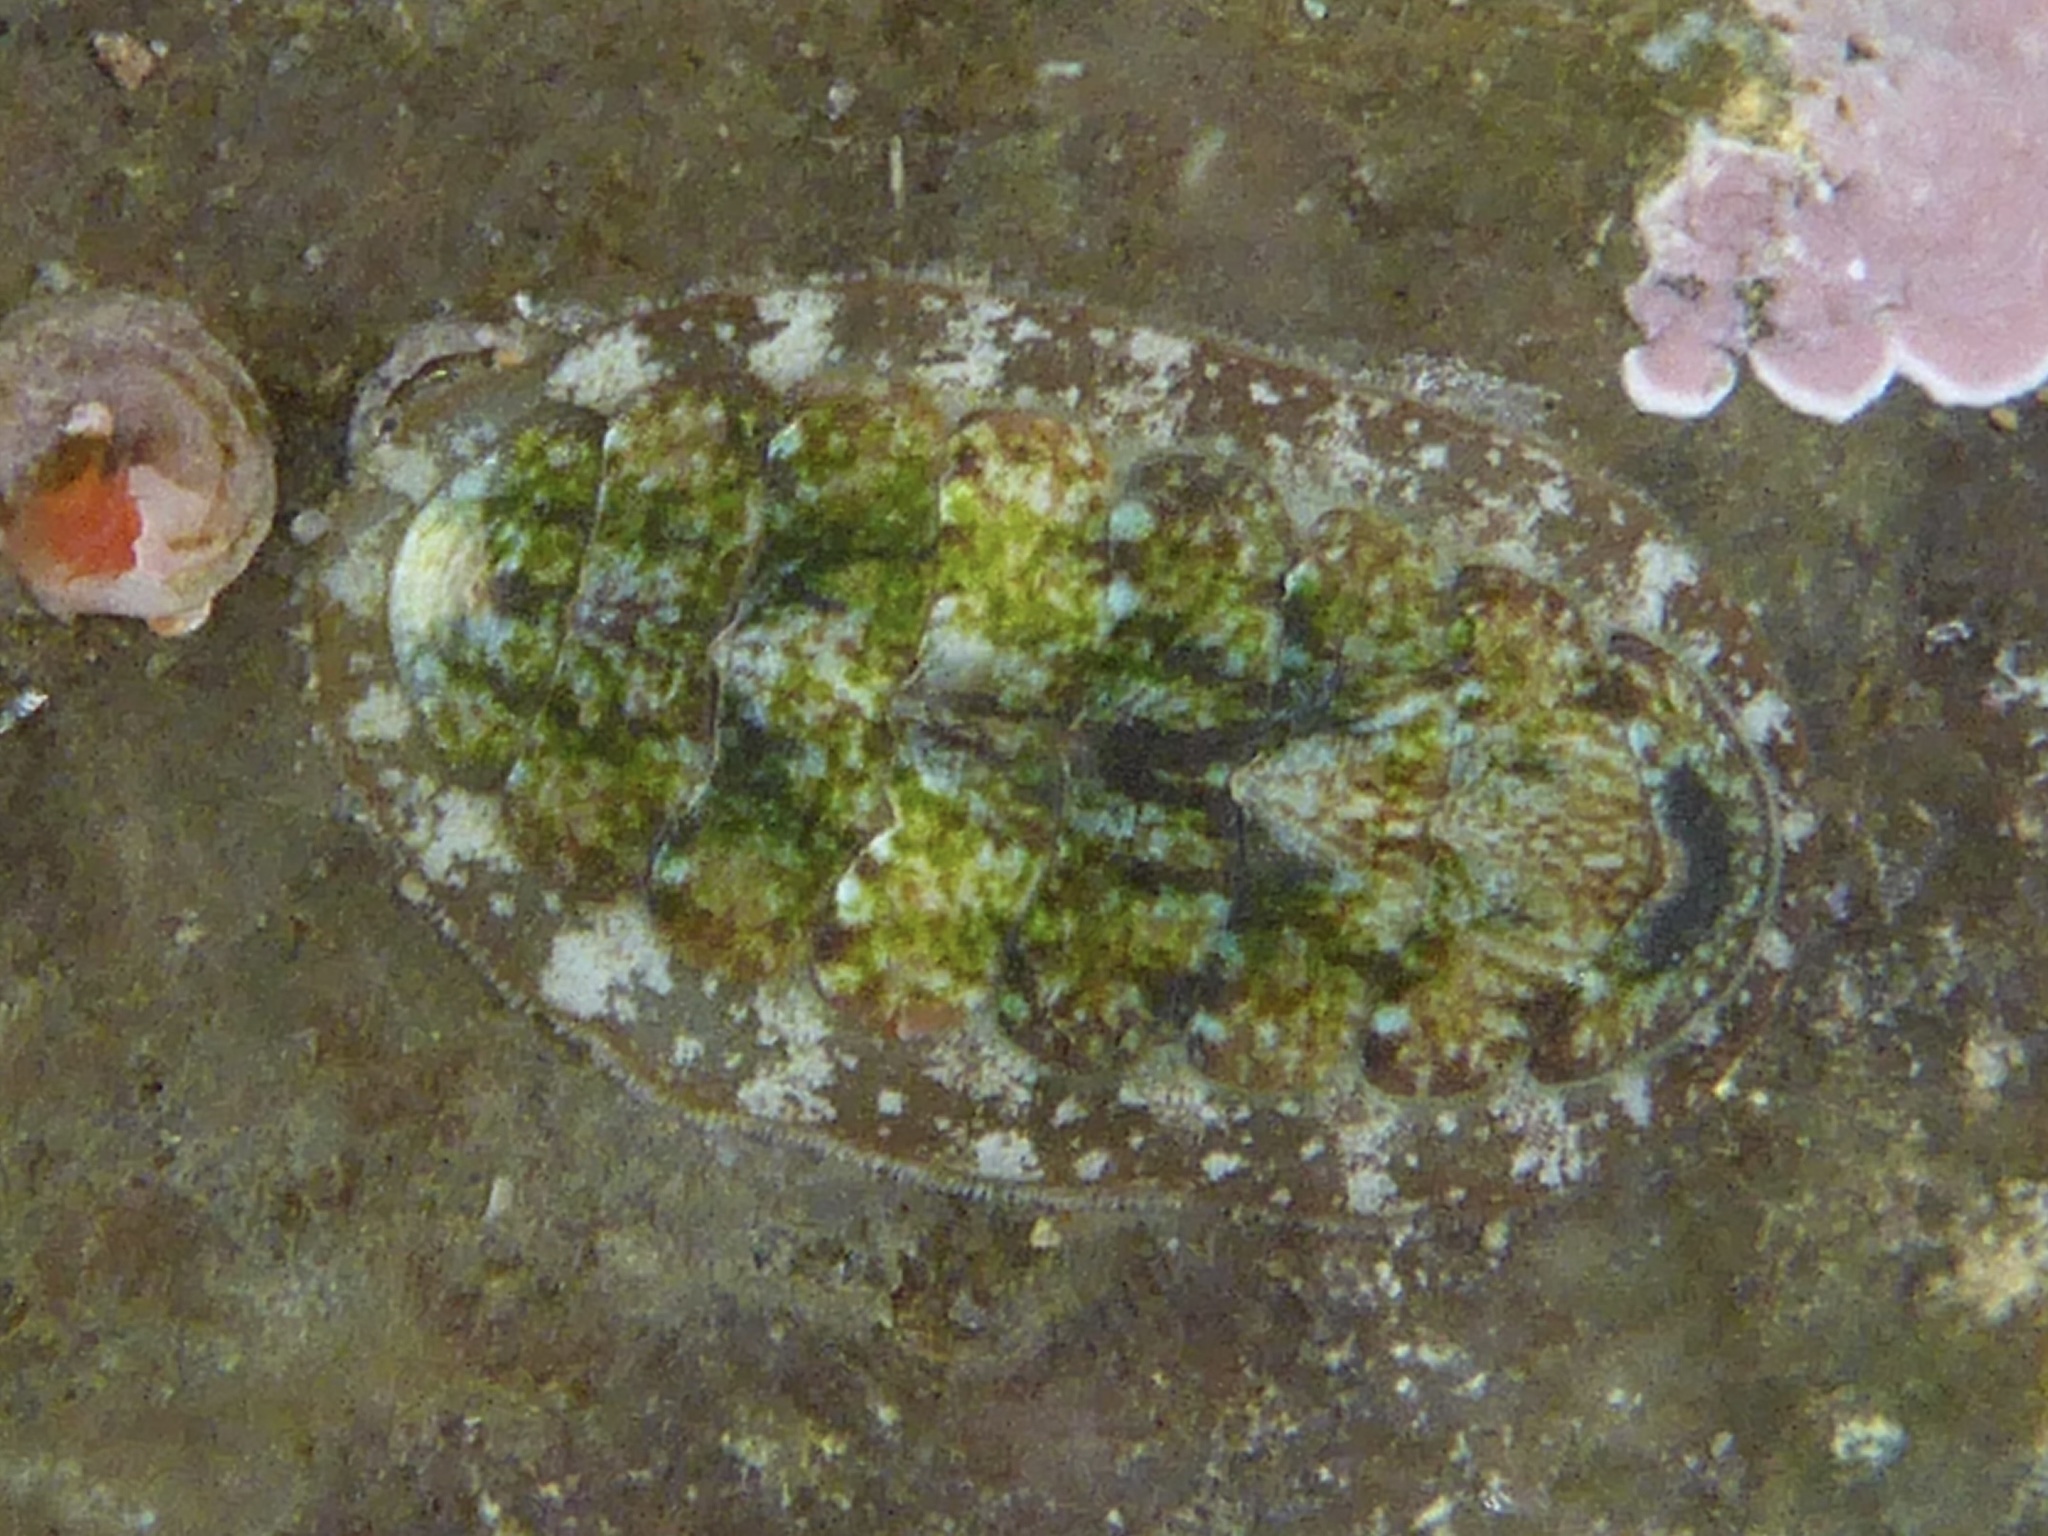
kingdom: Animalia
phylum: Mollusca
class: Polyplacophora
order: Chitonida
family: Tonicellidae
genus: Cyanoplax
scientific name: Cyanoplax dentiens
